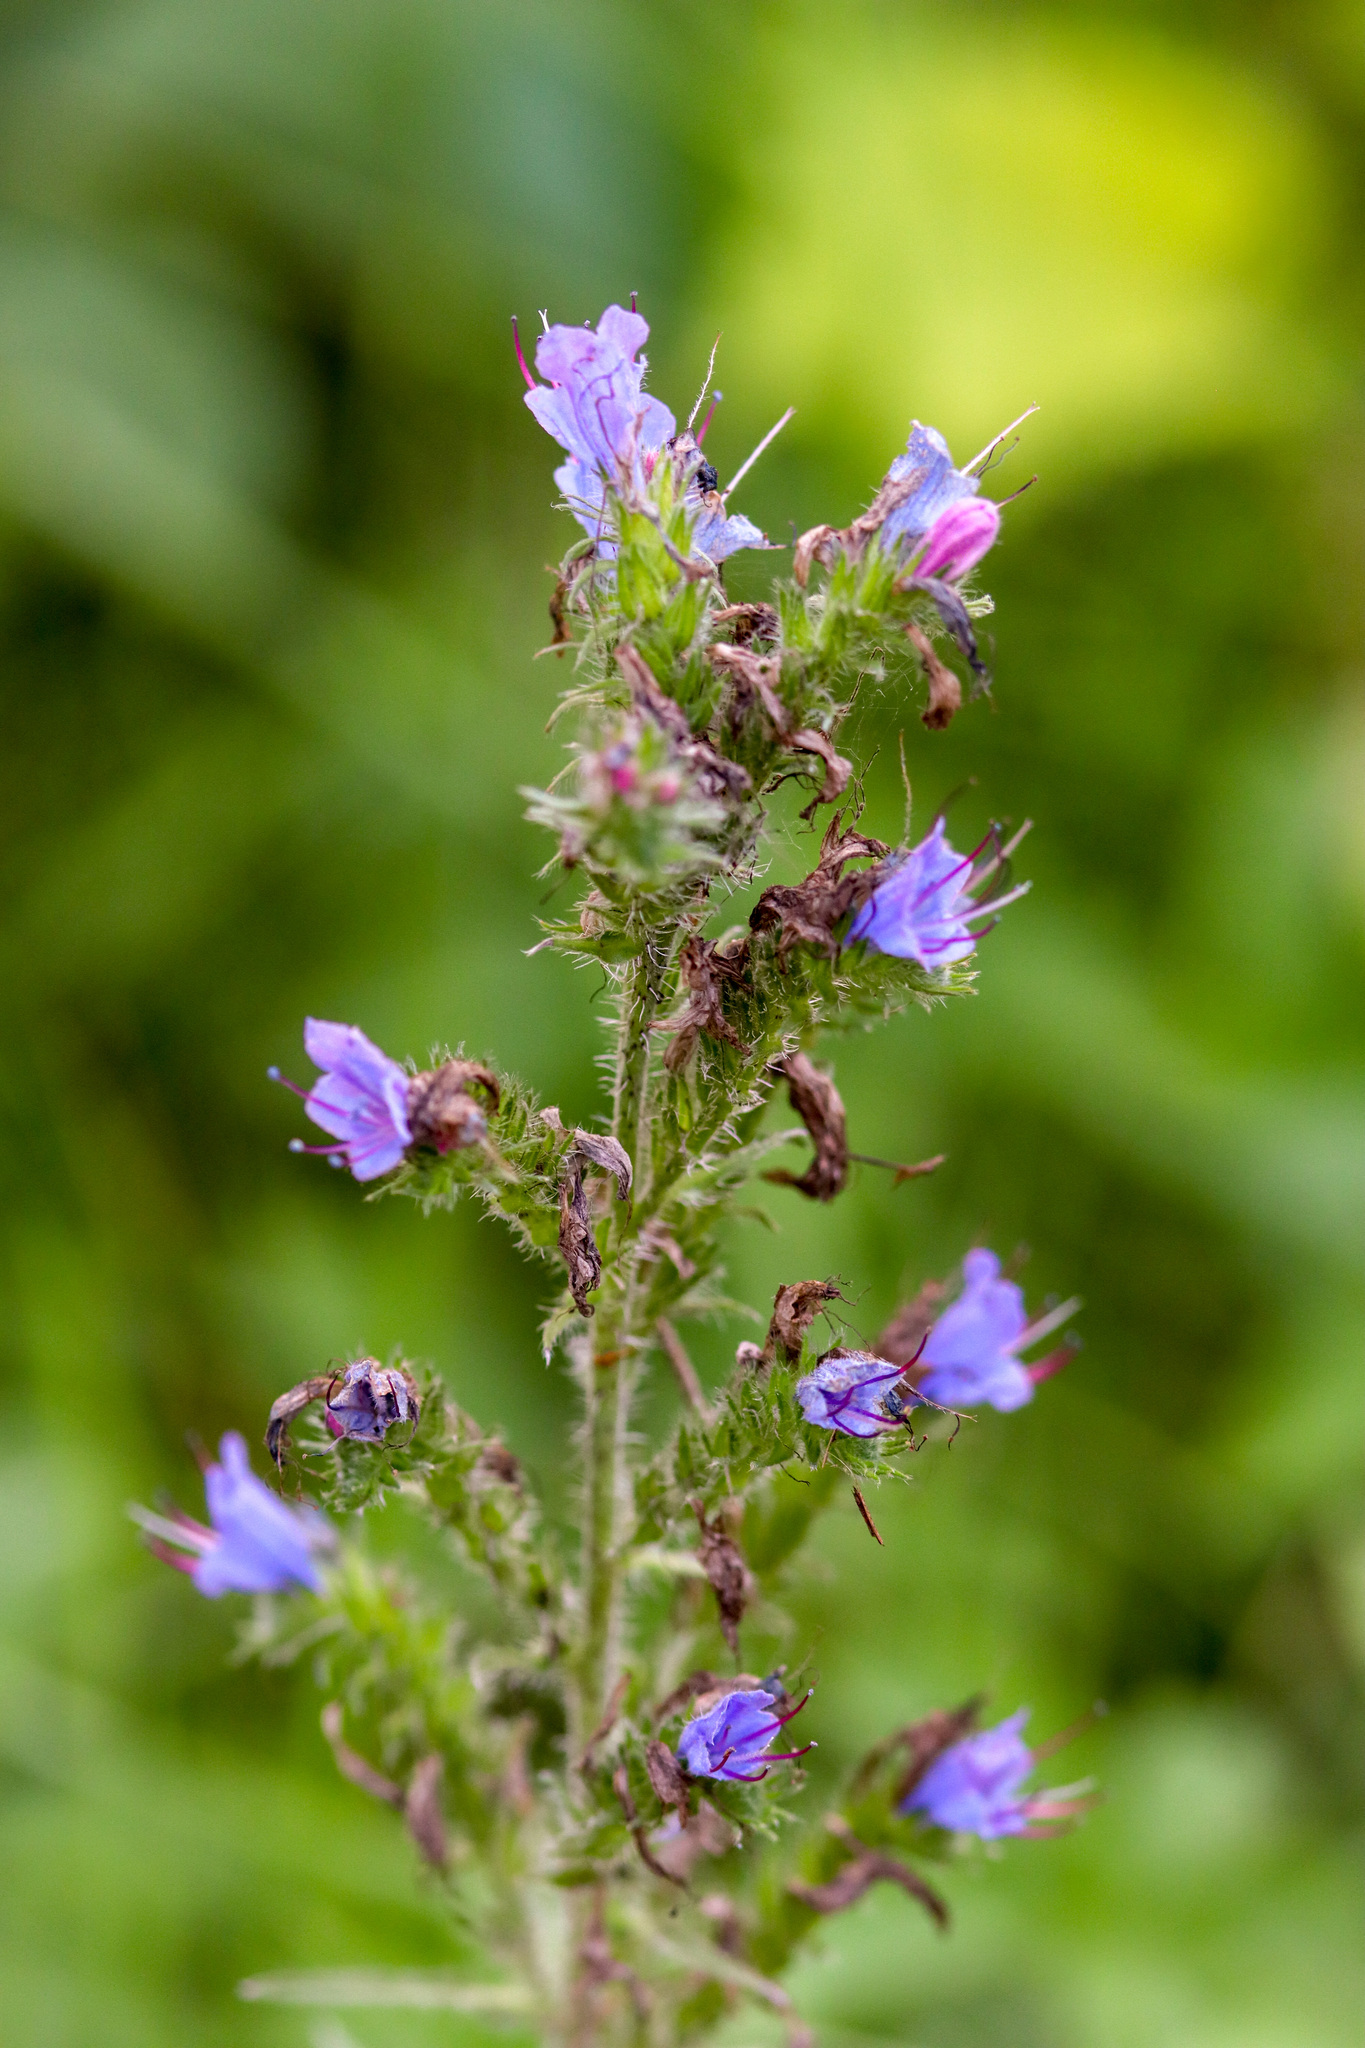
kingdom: Plantae
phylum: Tracheophyta
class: Magnoliopsida
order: Boraginales
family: Boraginaceae
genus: Echium
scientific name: Echium vulgare
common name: Common viper's bugloss
